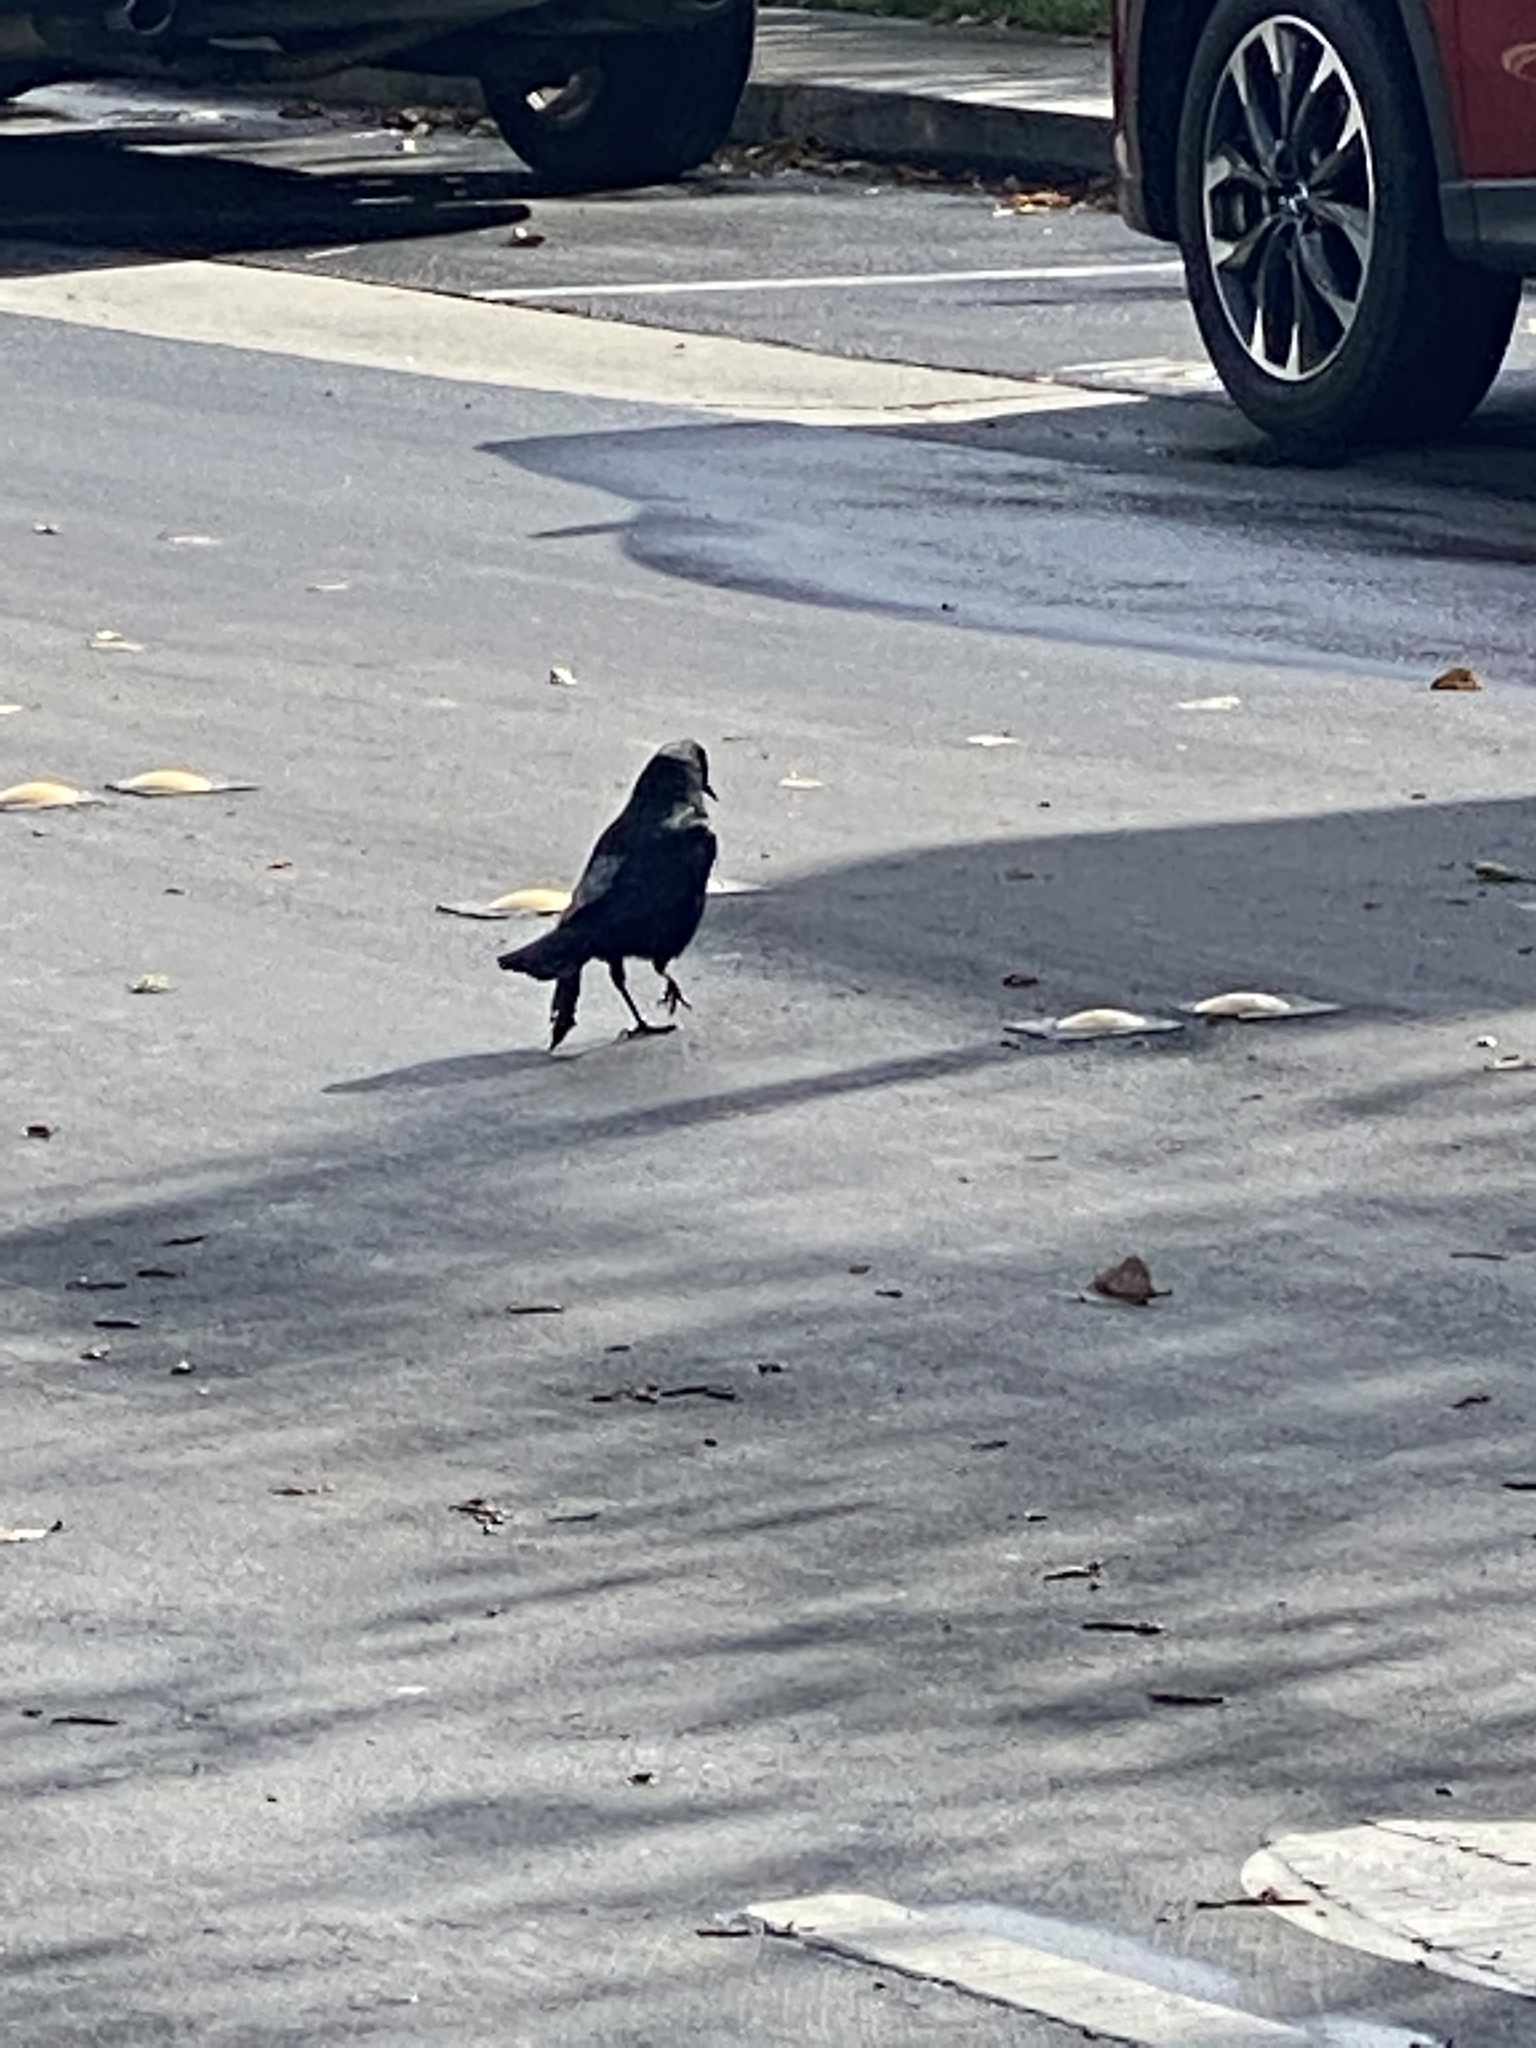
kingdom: Animalia
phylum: Chordata
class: Aves
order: Passeriformes
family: Corvidae
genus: Corvus
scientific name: Corvus brachyrhynchos
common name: American crow
